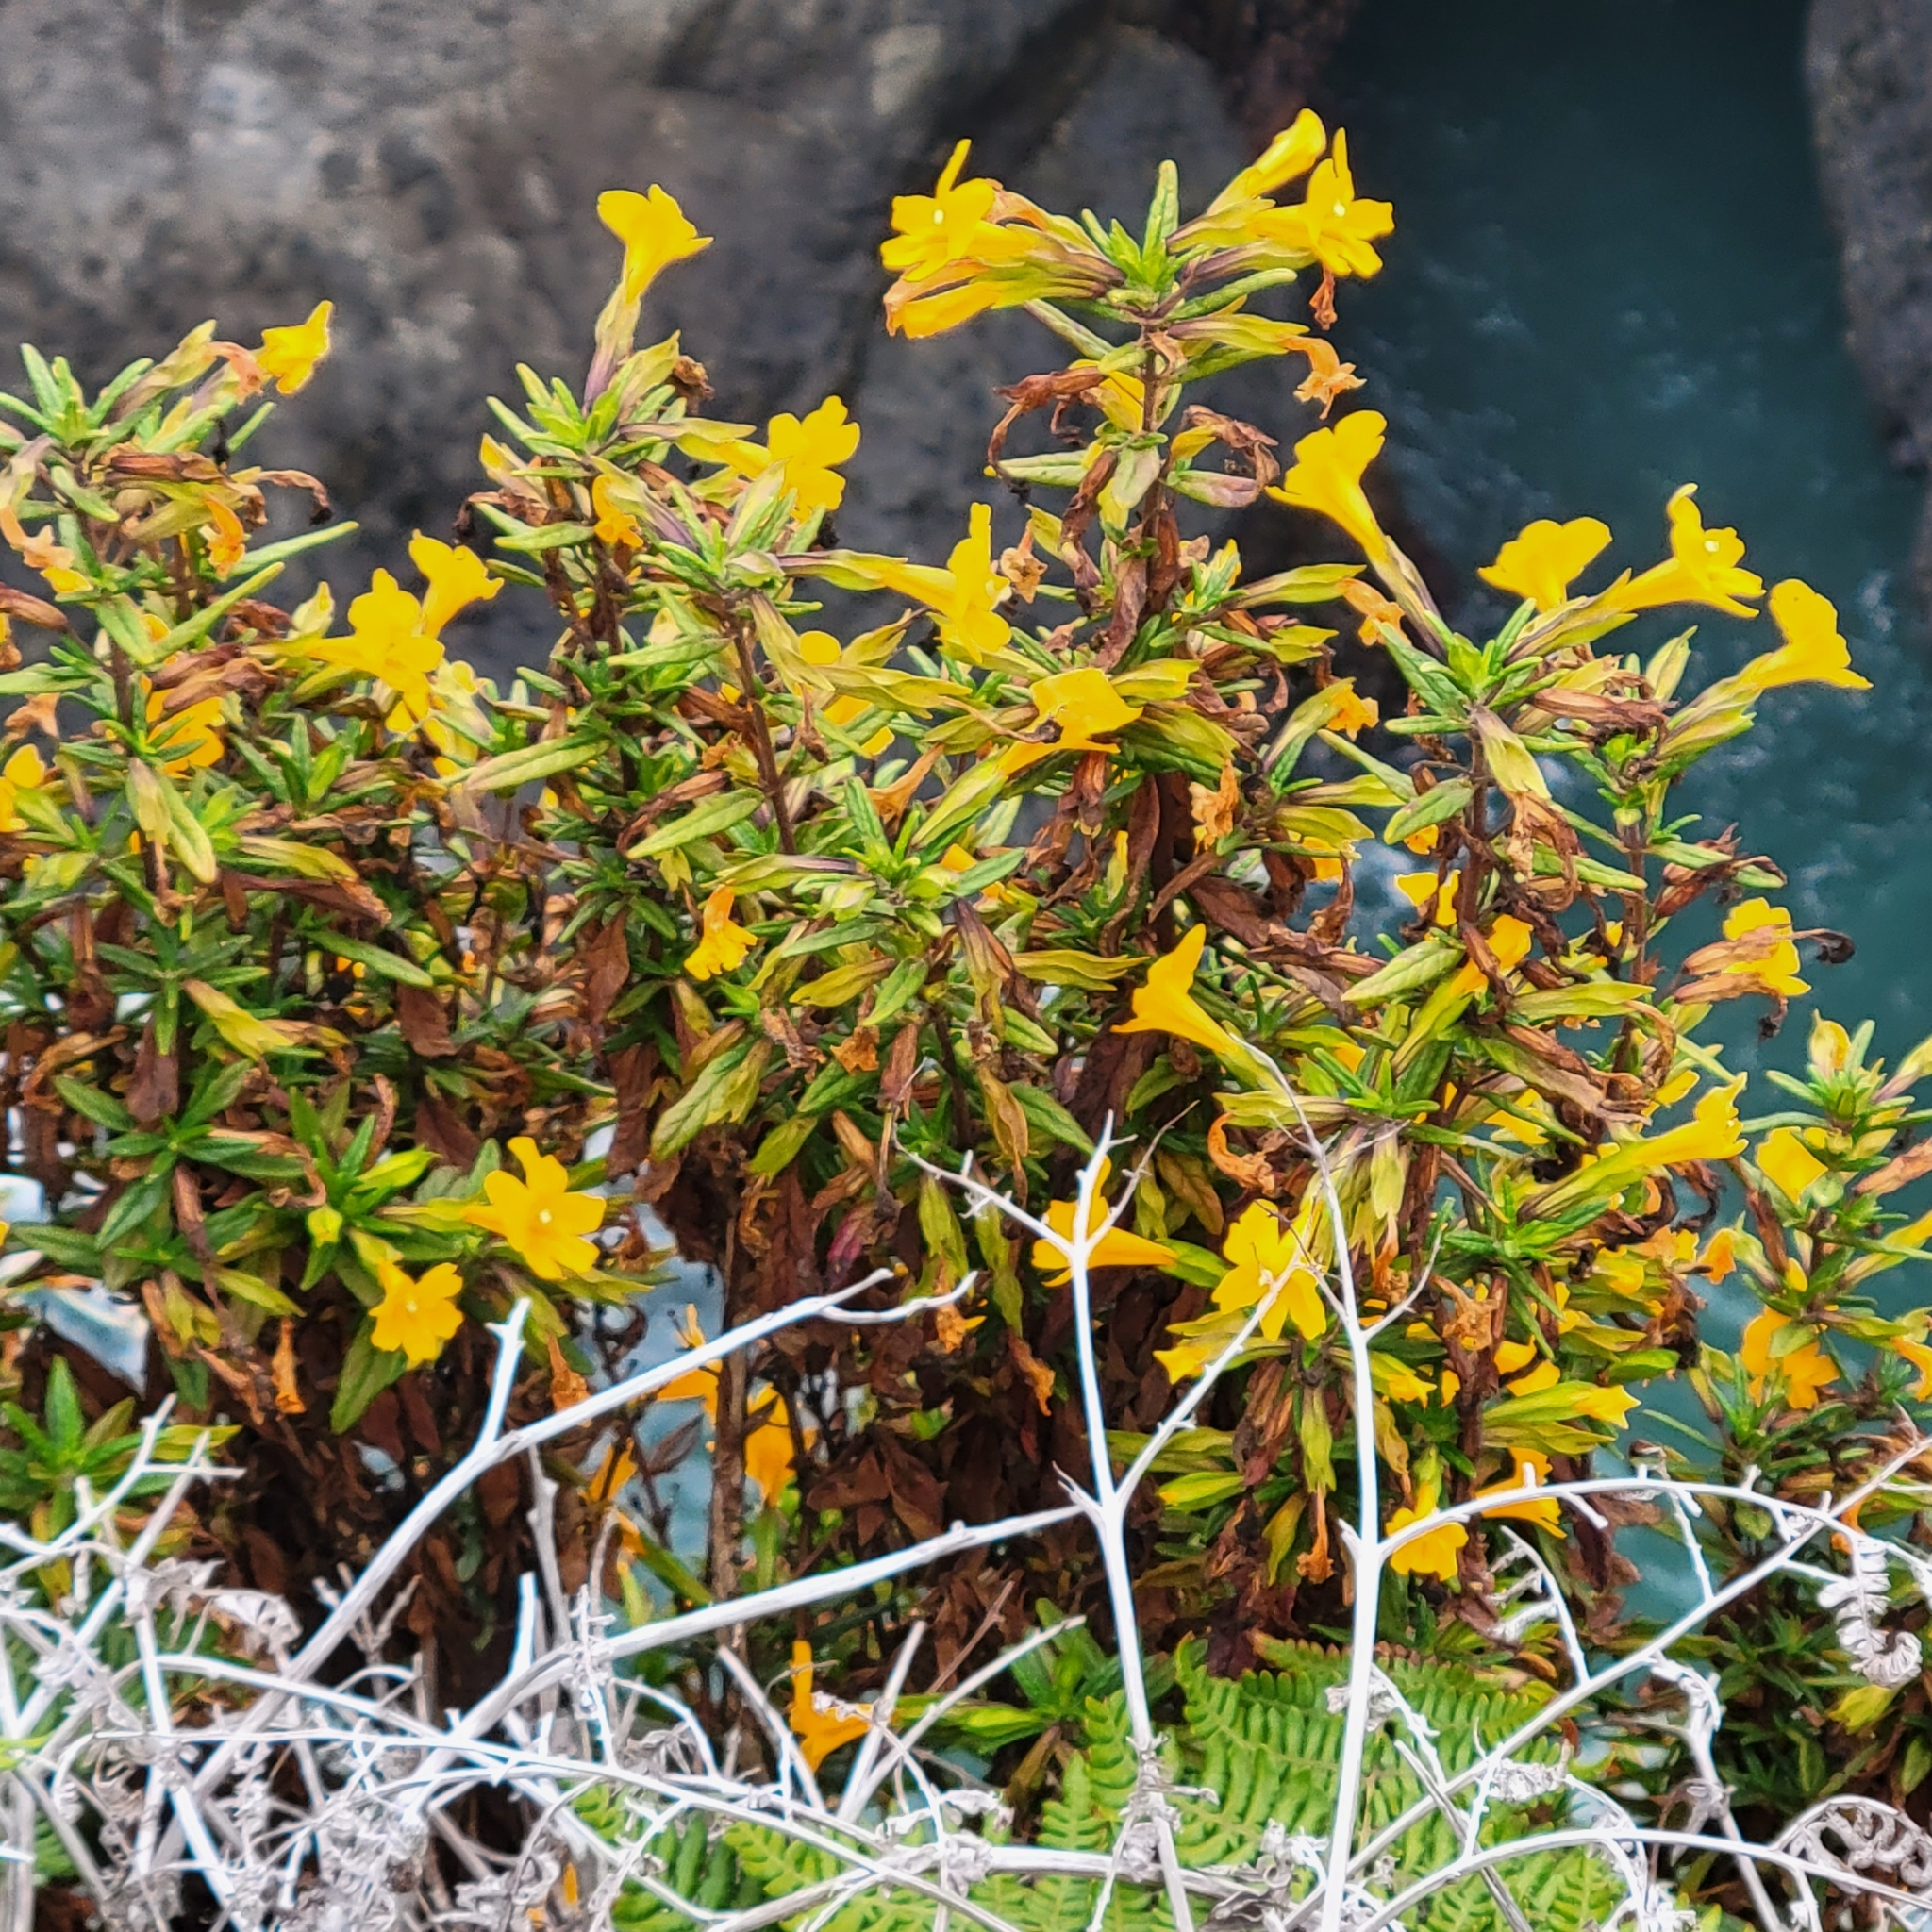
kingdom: Plantae
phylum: Tracheophyta
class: Magnoliopsida
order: Lamiales
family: Phrymaceae
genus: Diplacus
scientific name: Diplacus aurantiacus
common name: Bush monkey-flower
